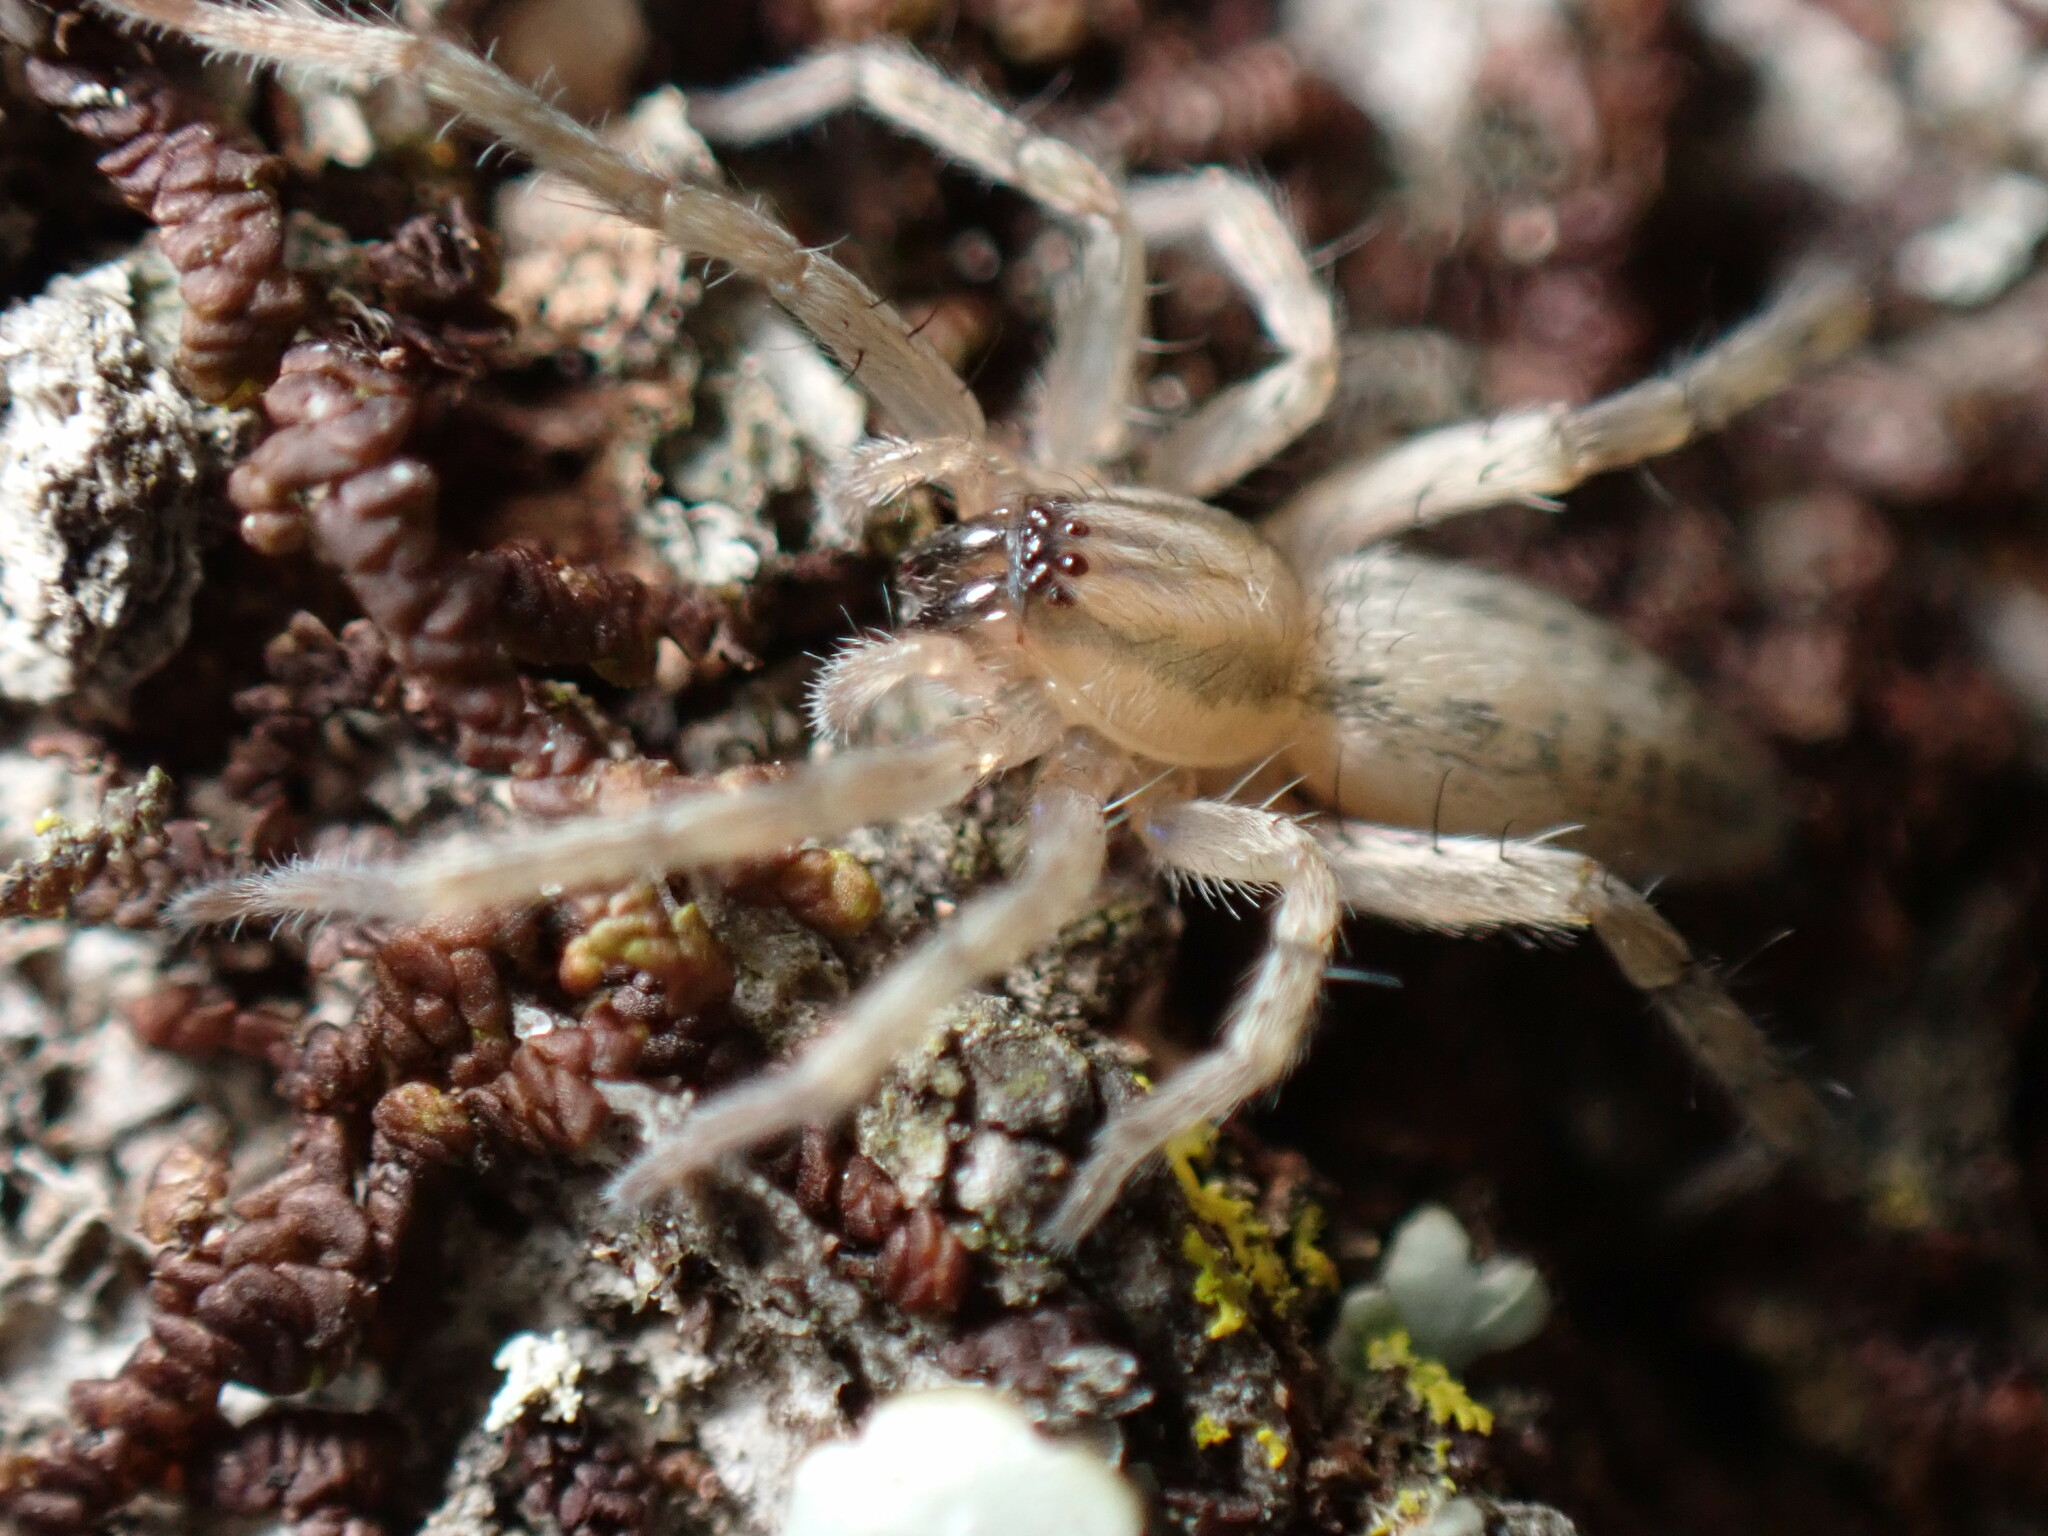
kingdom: Animalia
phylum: Arthropoda
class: Arachnida
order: Araneae
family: Anyphaenidae
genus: Hibana
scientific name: Hibana gracilis
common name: Garden ghost spider
